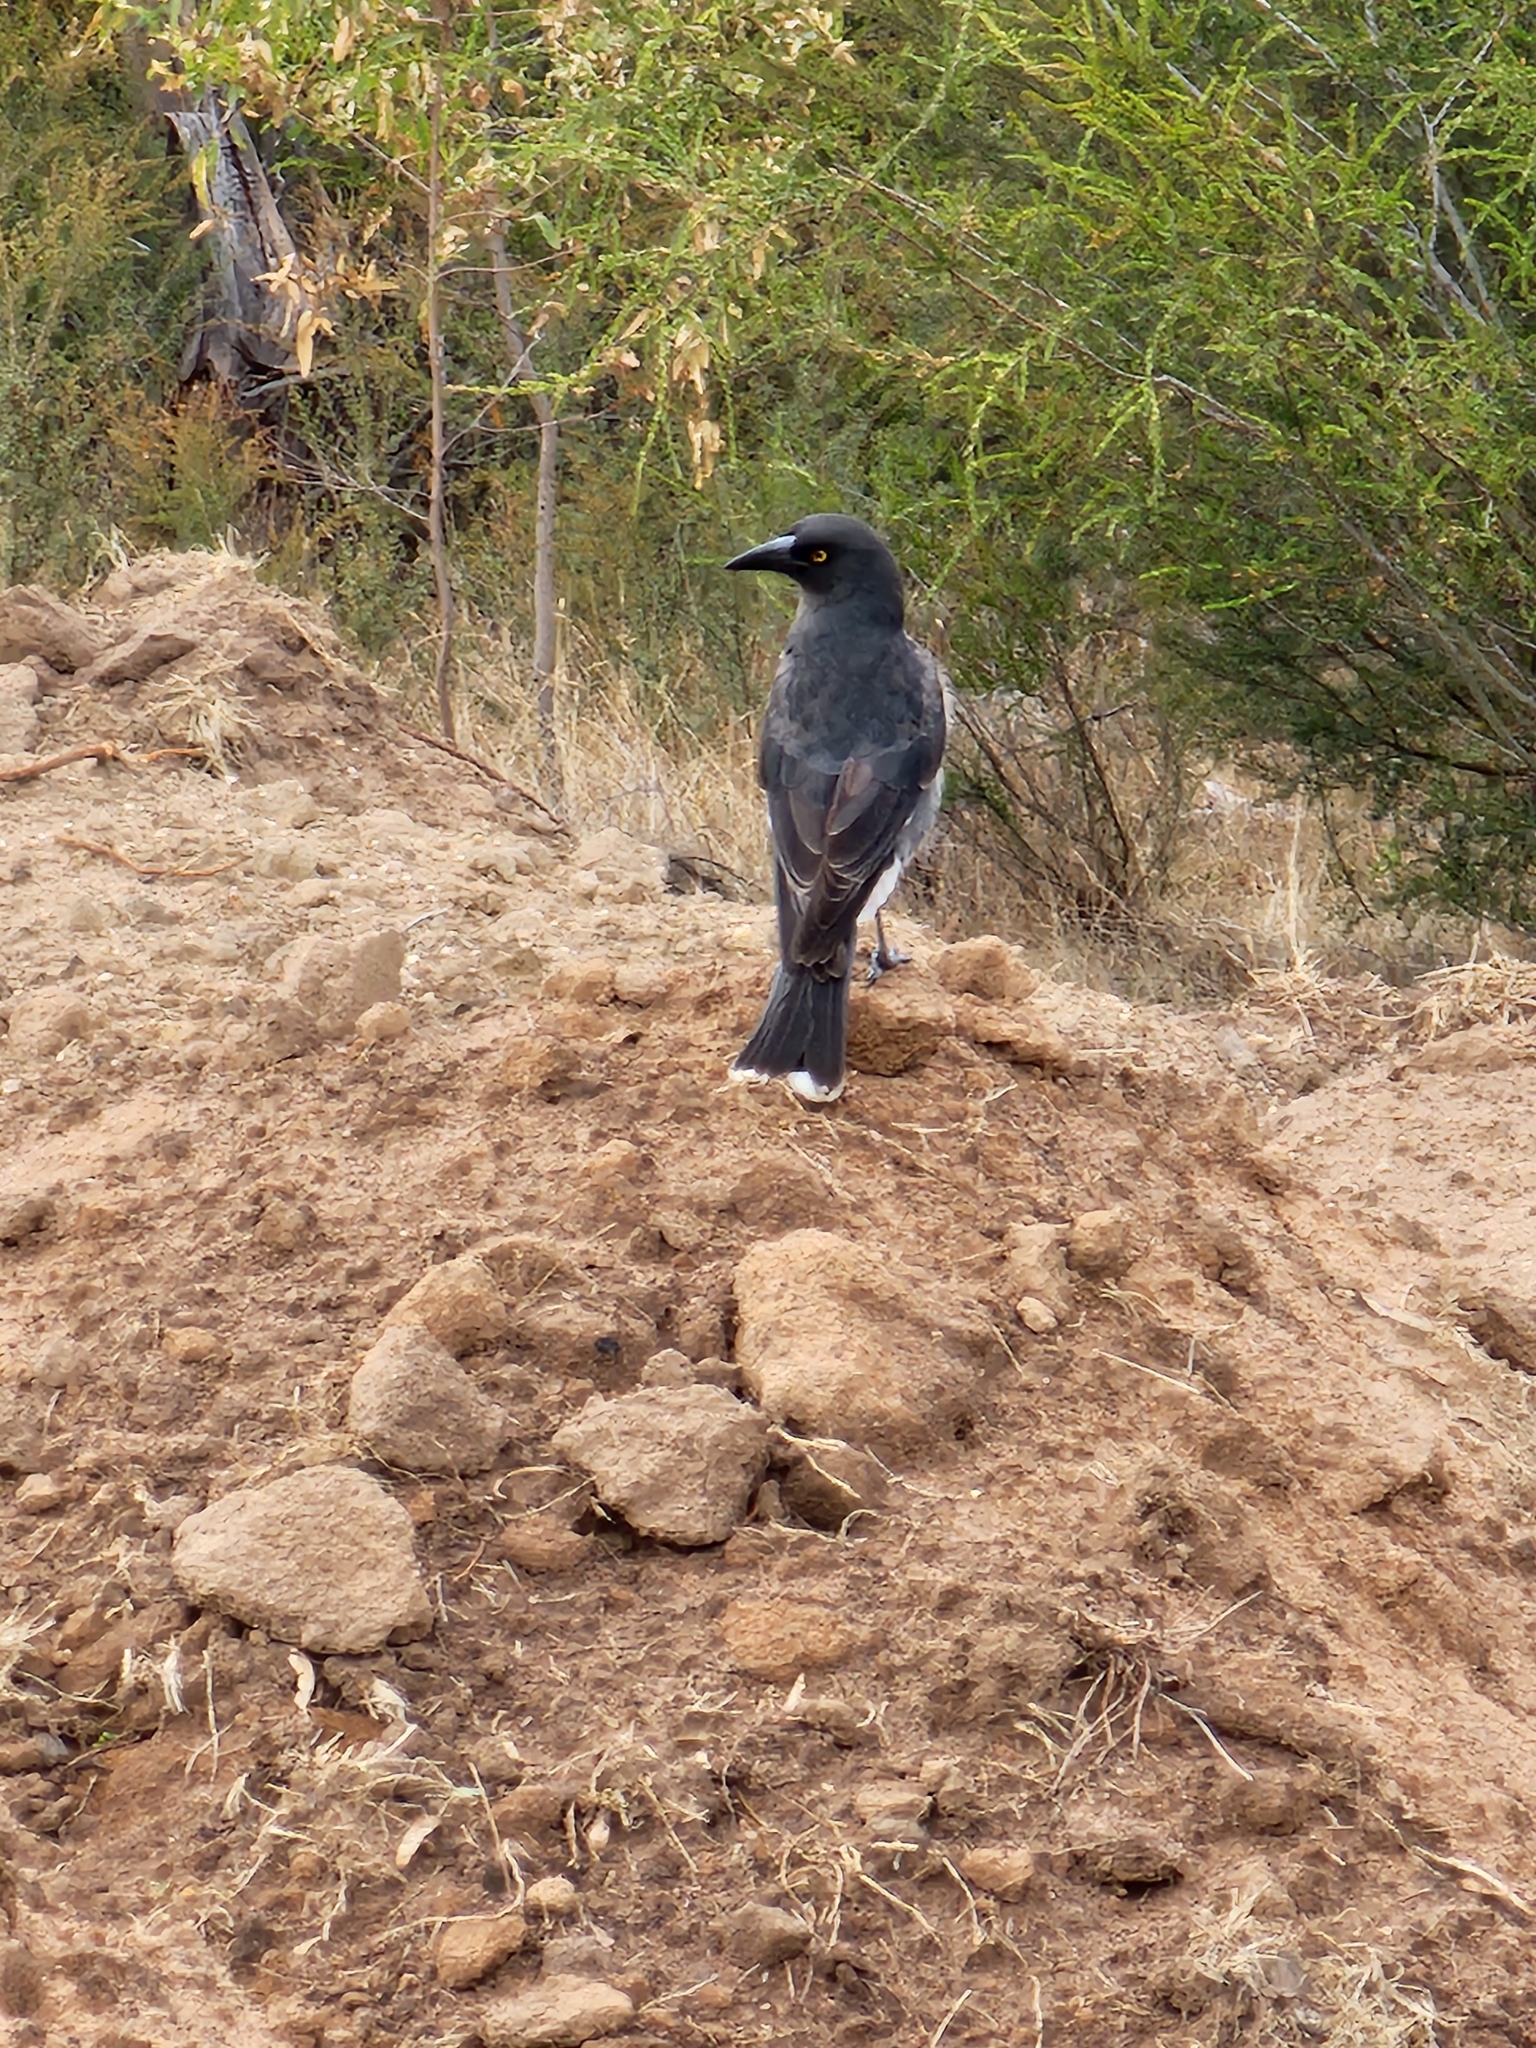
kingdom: Animalia
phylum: Chordata
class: Aves
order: Passeriformes
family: Cracticidae
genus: Strepera
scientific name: Strepera versicolor
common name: Grey currawong
